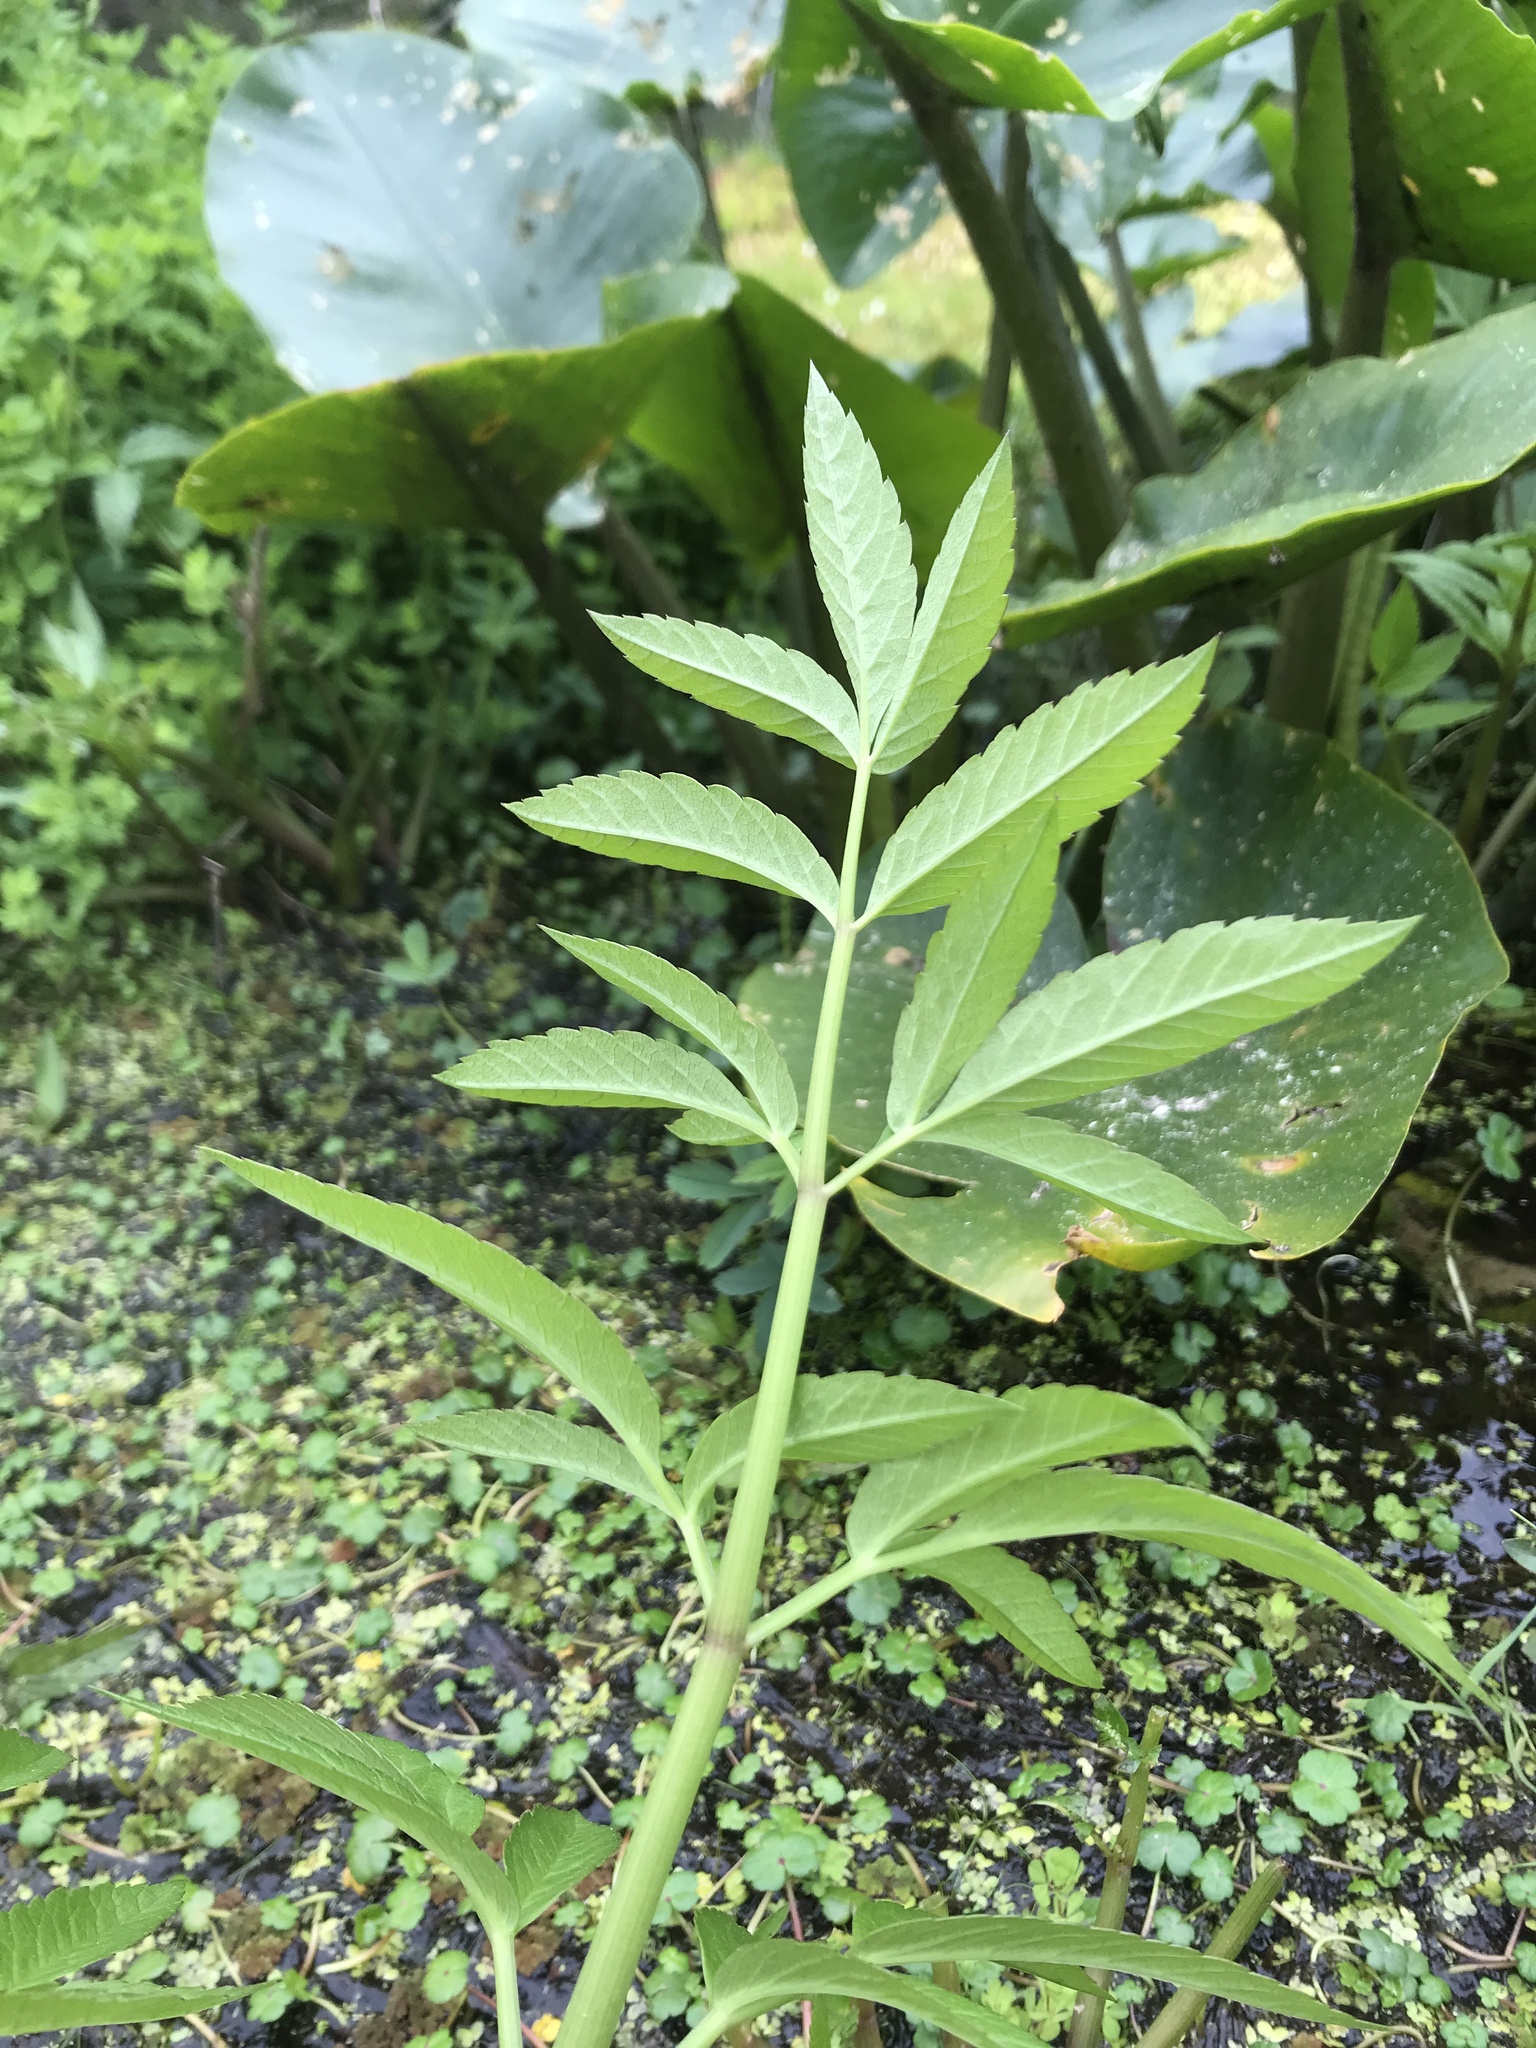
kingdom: Plantae
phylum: Tracheophyta
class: Magnoliopsida
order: Apiales
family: Apiaceae
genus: Cicuta
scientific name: Cicuta douglasii
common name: Western water-hemlock
